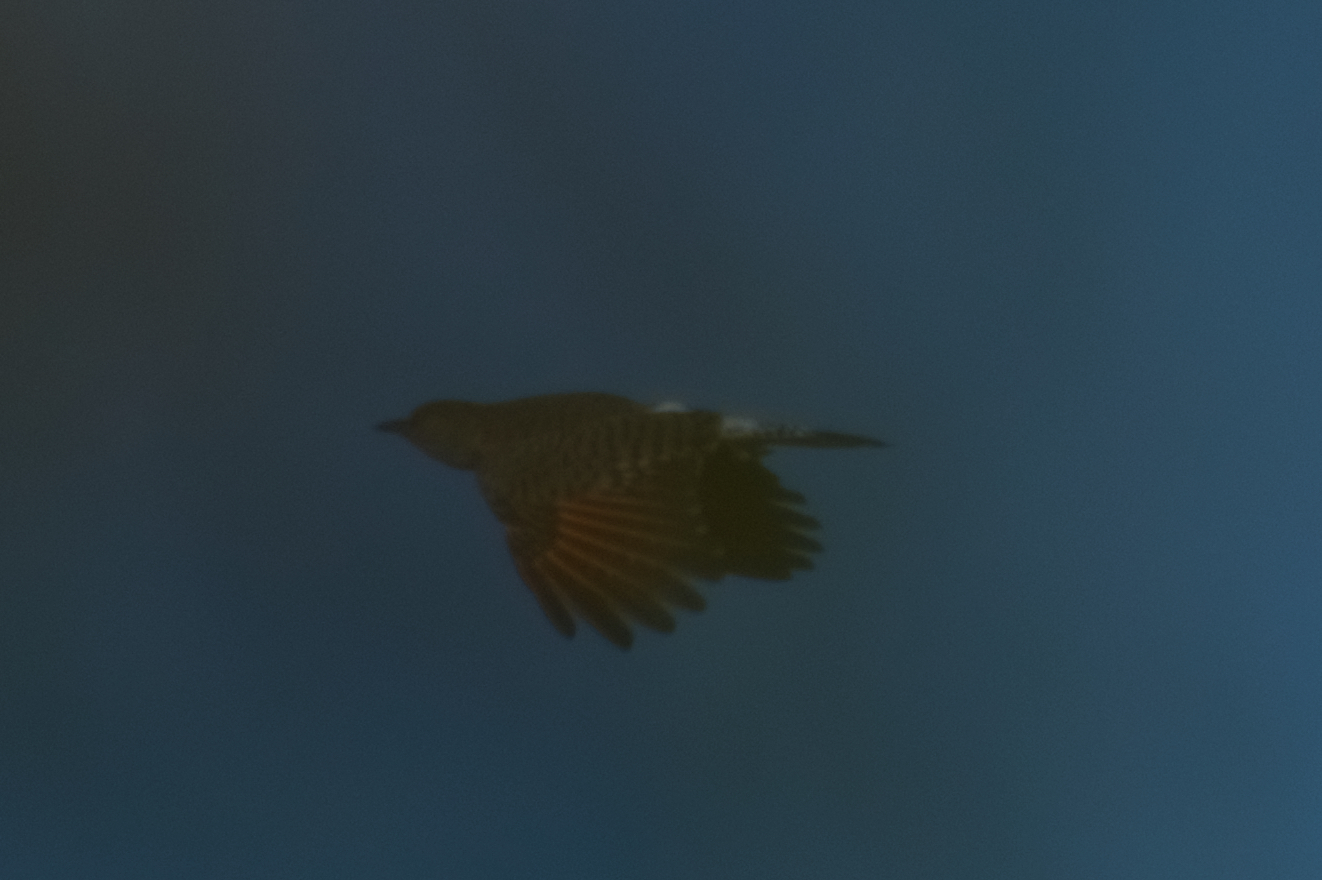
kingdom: Animalia
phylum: Chordata
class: Aves
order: Piciformes
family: Picidae
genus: Colaptes
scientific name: Colaptes auratus
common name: Northern flicker
